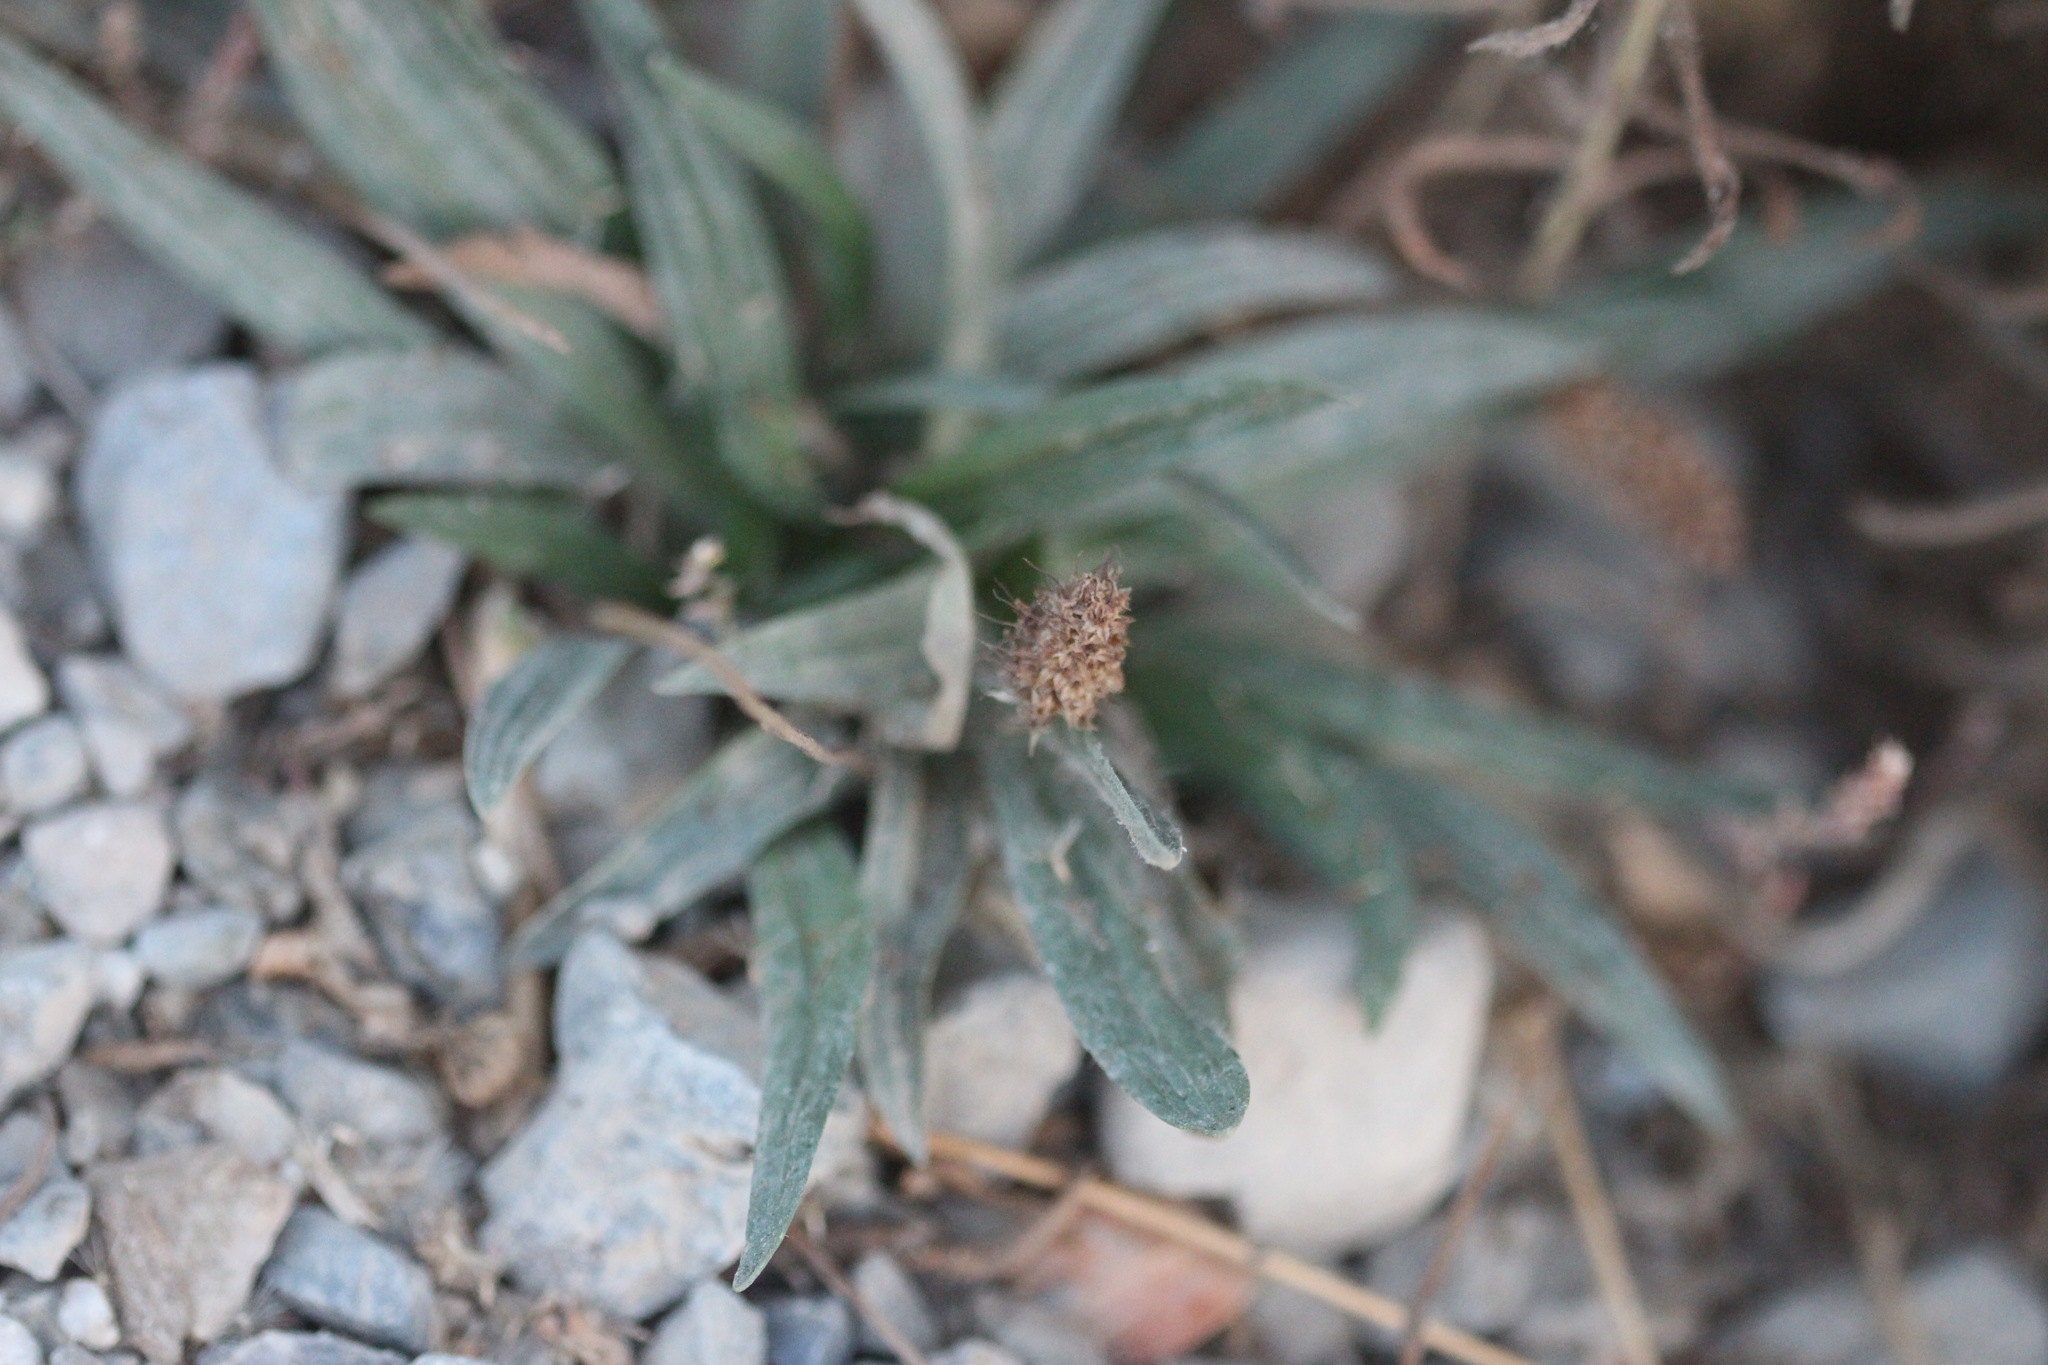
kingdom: Plantae
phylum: Tracheophyta
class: Magnoliopsida
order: Lamiales
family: Plantaginaceae
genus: Plantago
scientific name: Plantago lanceolata
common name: Ribwort plantain
